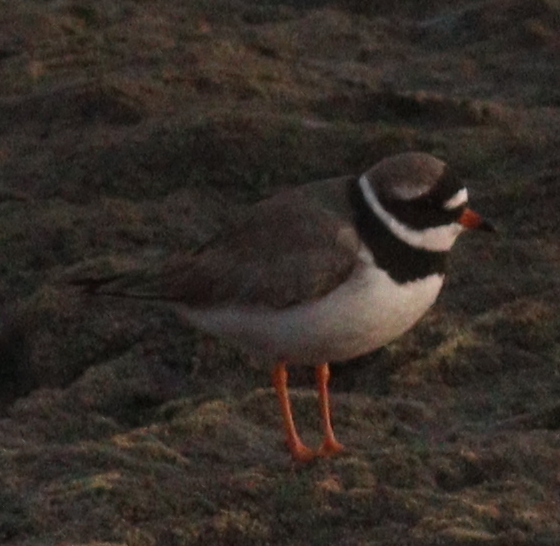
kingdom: Animalia
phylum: Chordata
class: Aves
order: Charadriiformes
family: Charadriidae
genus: Charadrius
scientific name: Charadrius hiaticula
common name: Common ringed plover
